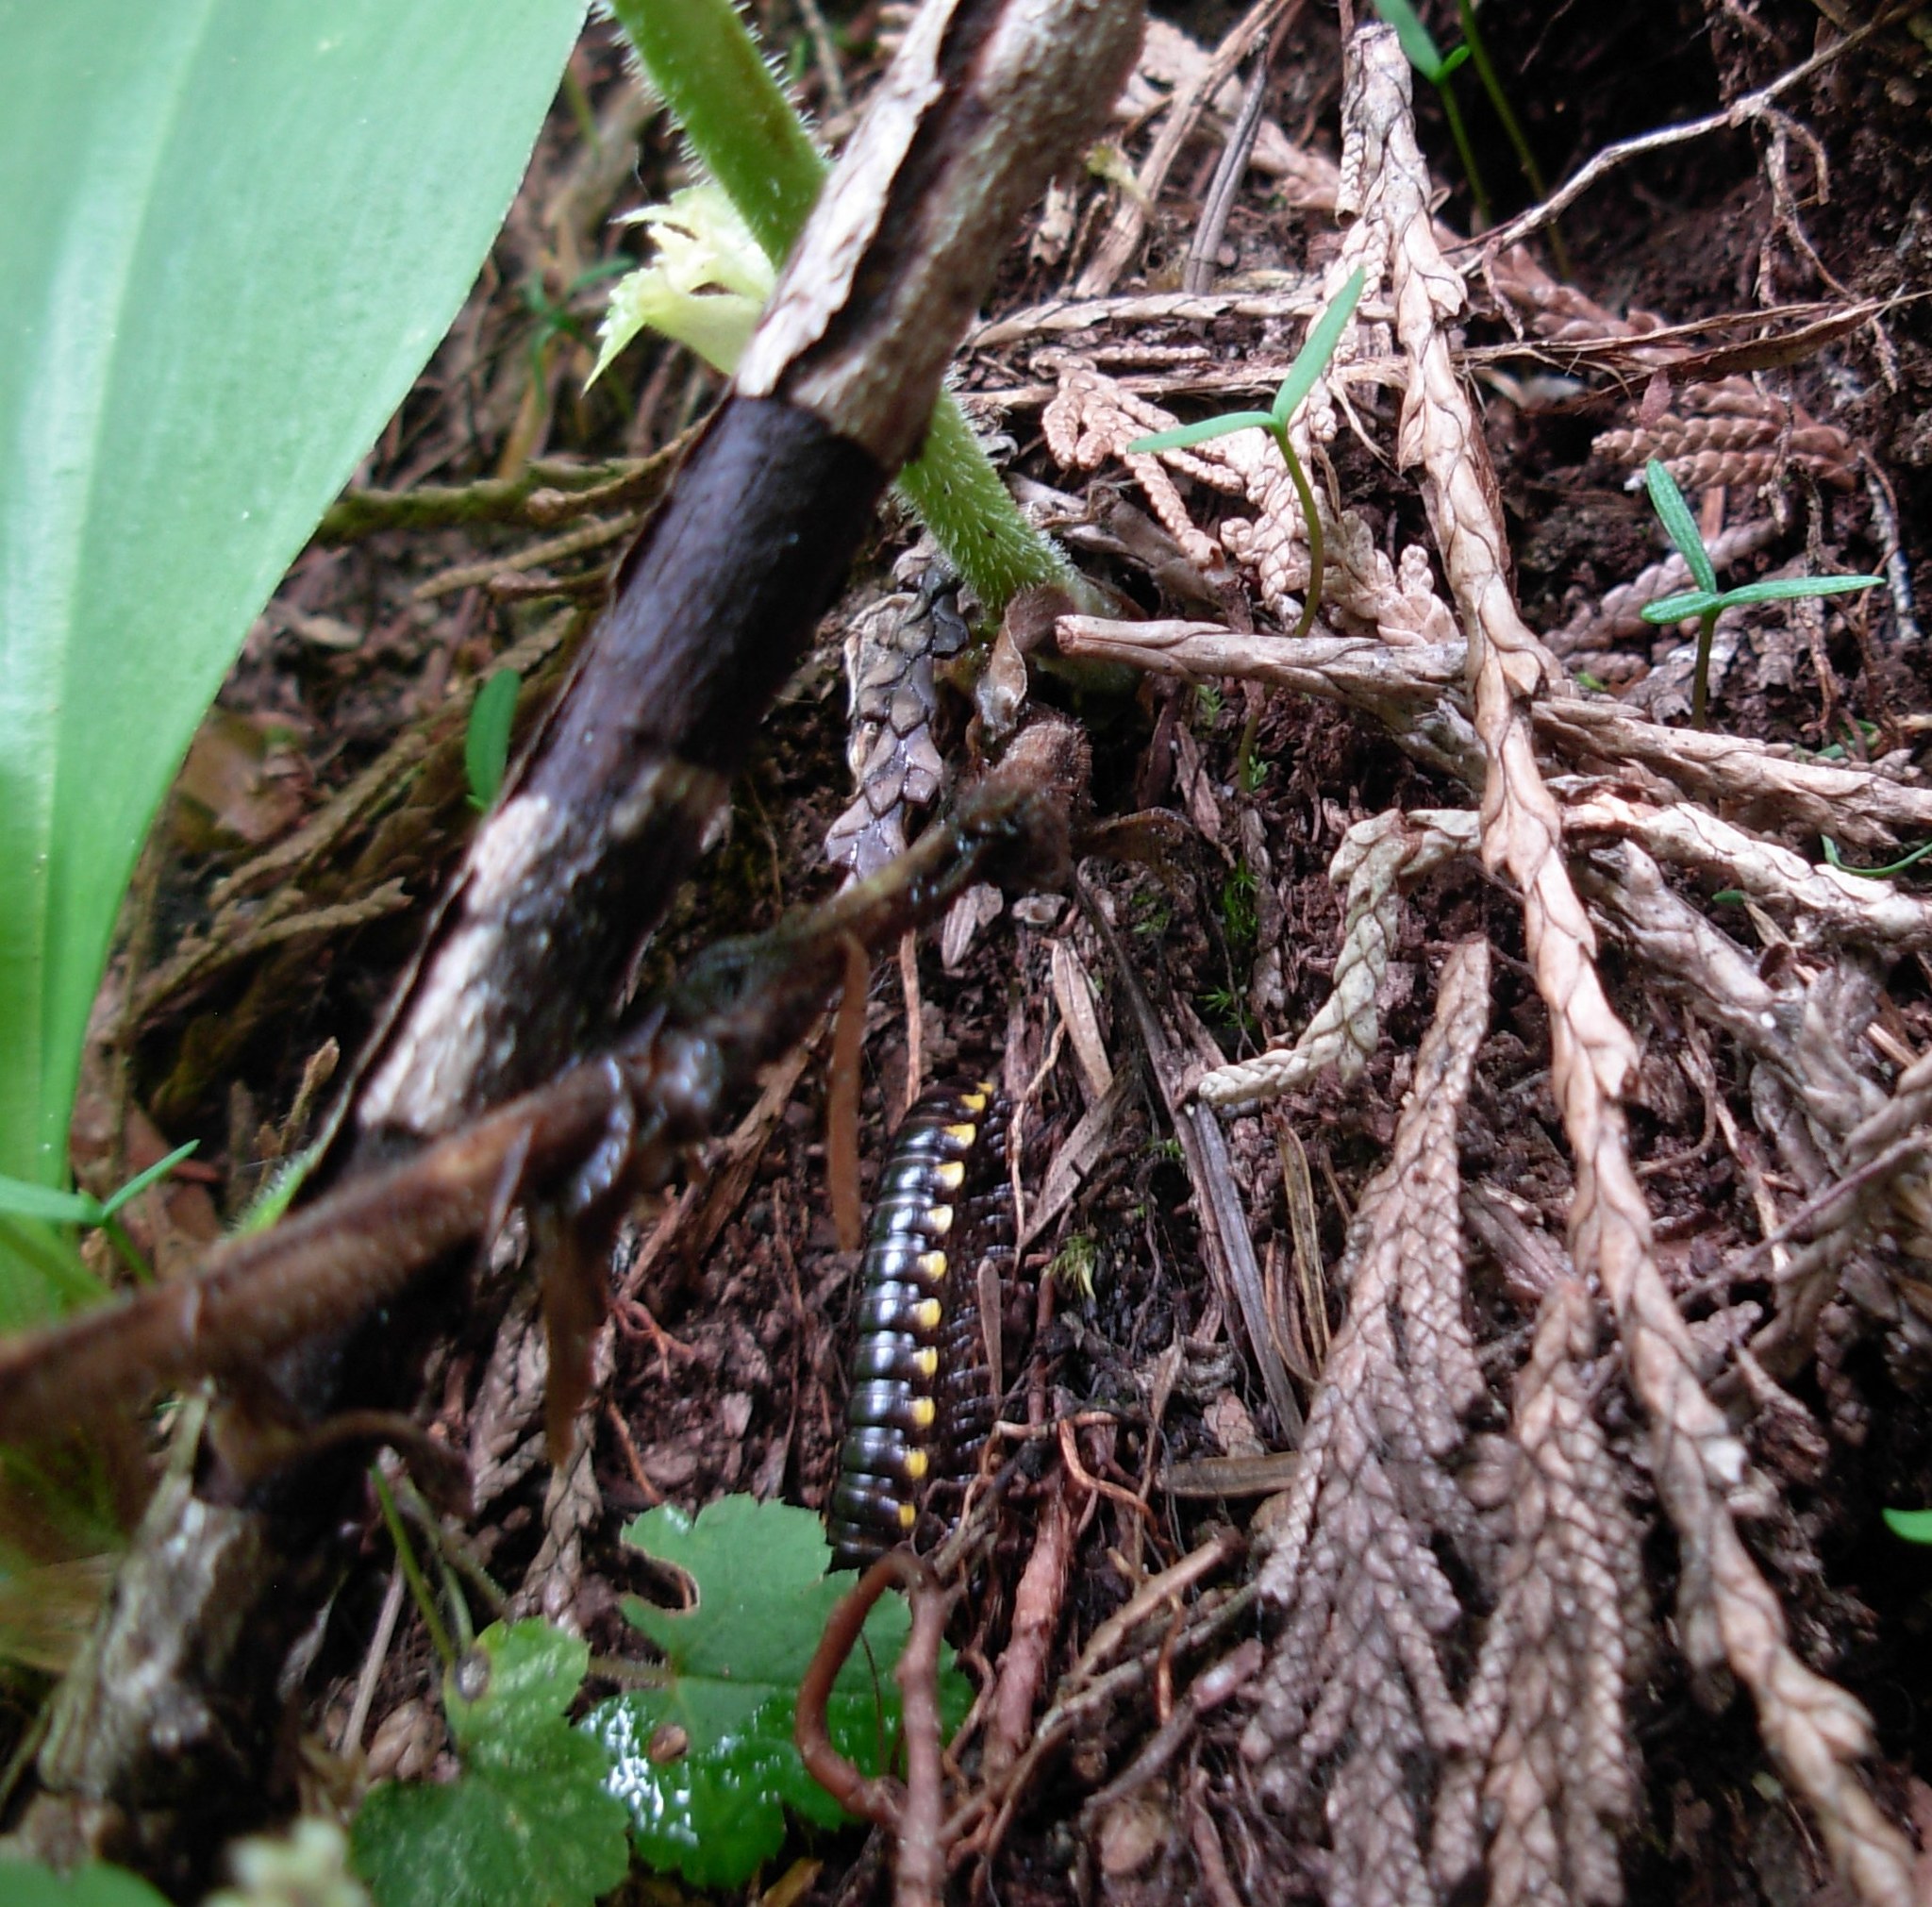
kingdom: Animalia
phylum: Arthropoda
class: Diplopoda
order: Polydesmida
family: Xystodesmidae
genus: Harpaphe
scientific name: Harpaphe haydeniana
